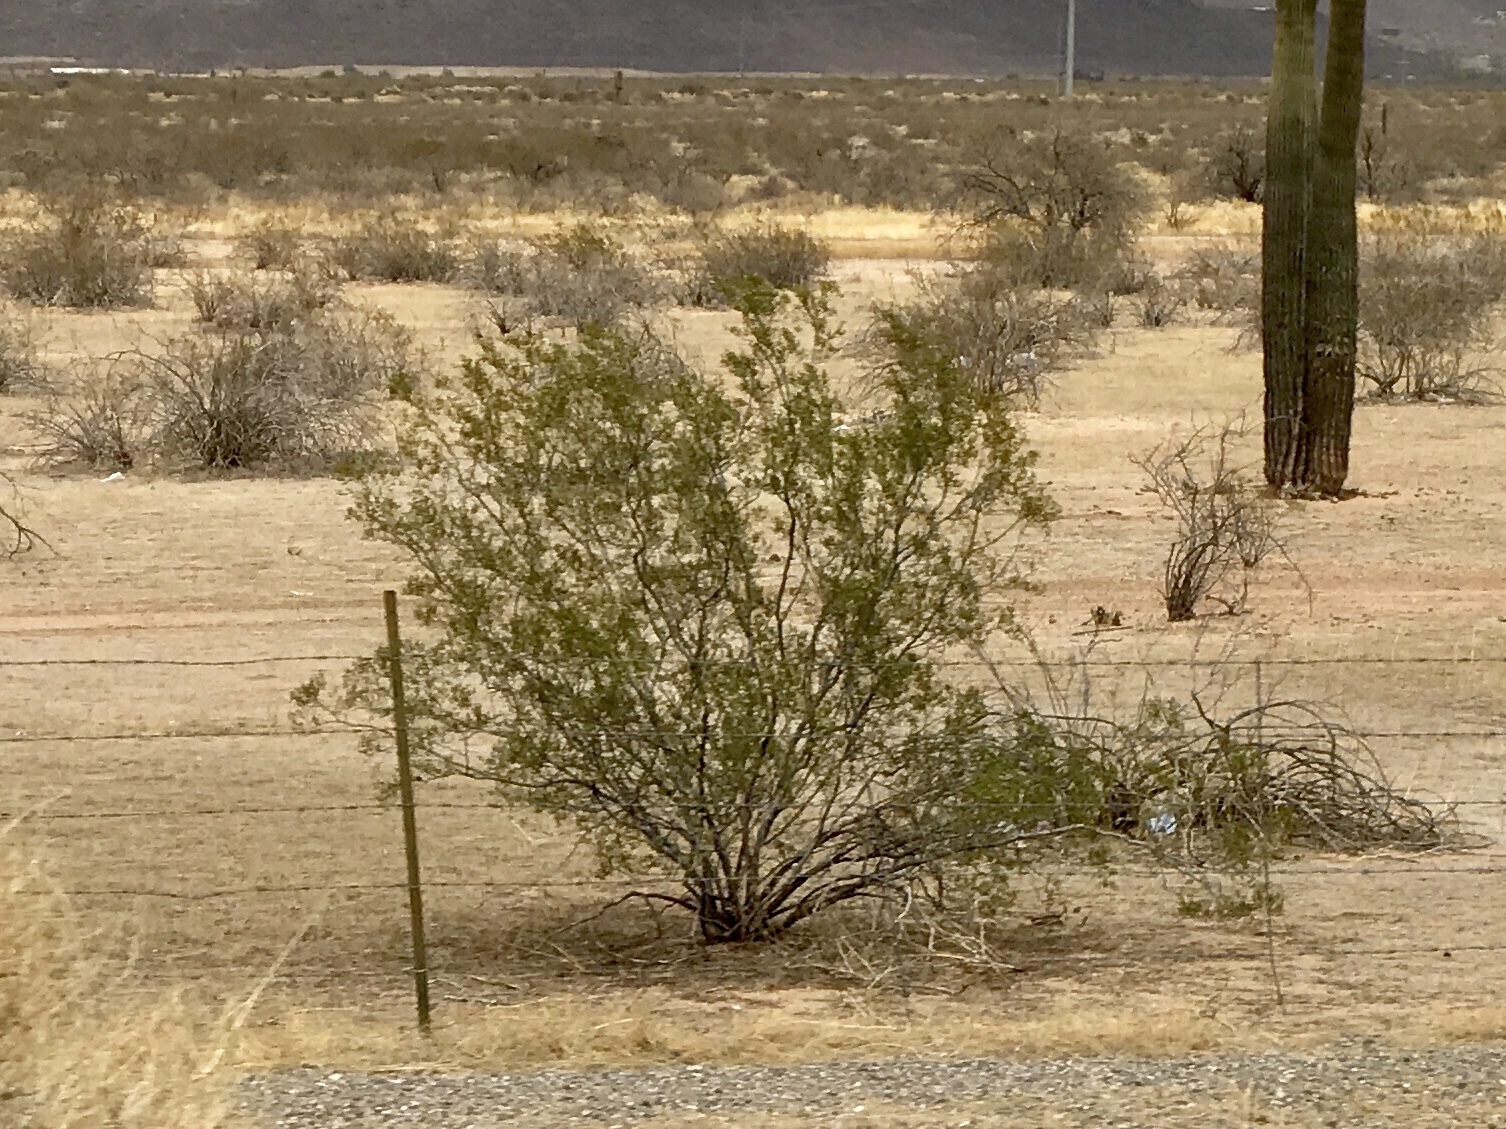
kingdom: Plantae
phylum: Tracheophyta
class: Magnoliopsida
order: Zygophyllales
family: Zygophyllaceae
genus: Larrea
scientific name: Larrea tridentata
